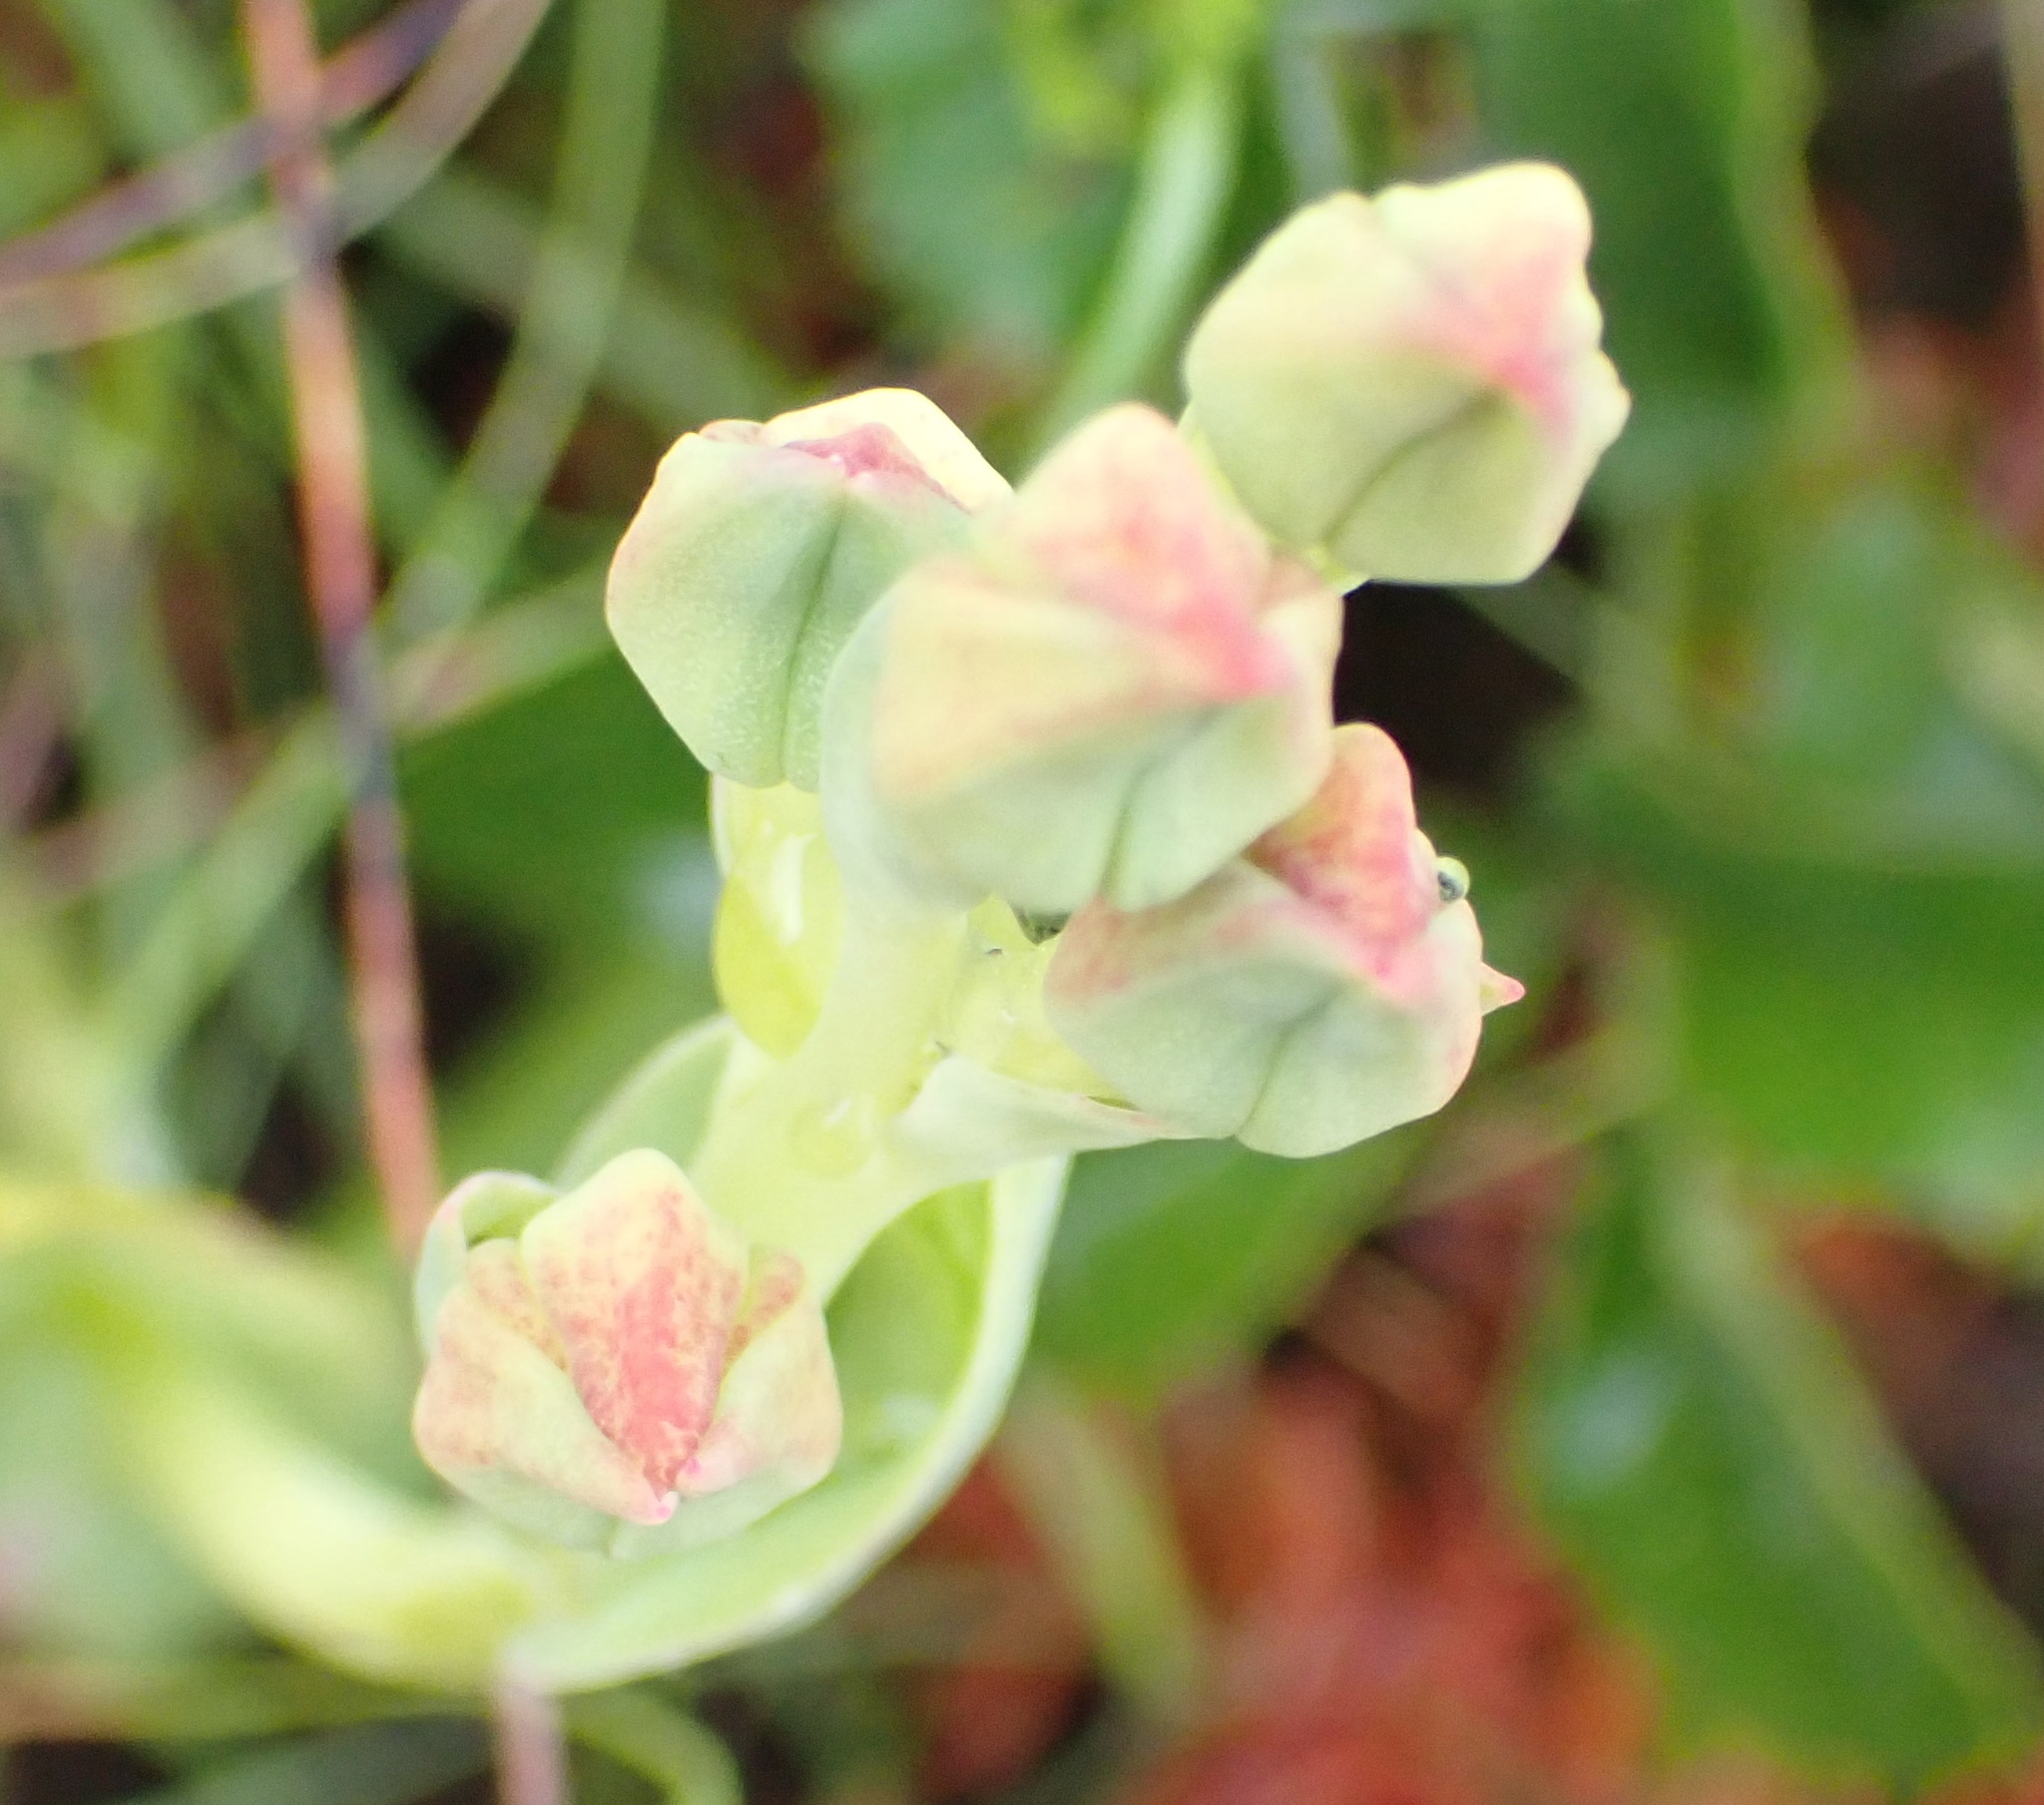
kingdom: Plantae
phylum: Tracheophyta
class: Liliopsida
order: Asparagales
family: Orchidaceae
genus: Pterygodium
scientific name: Pterygodium cleistogamum
